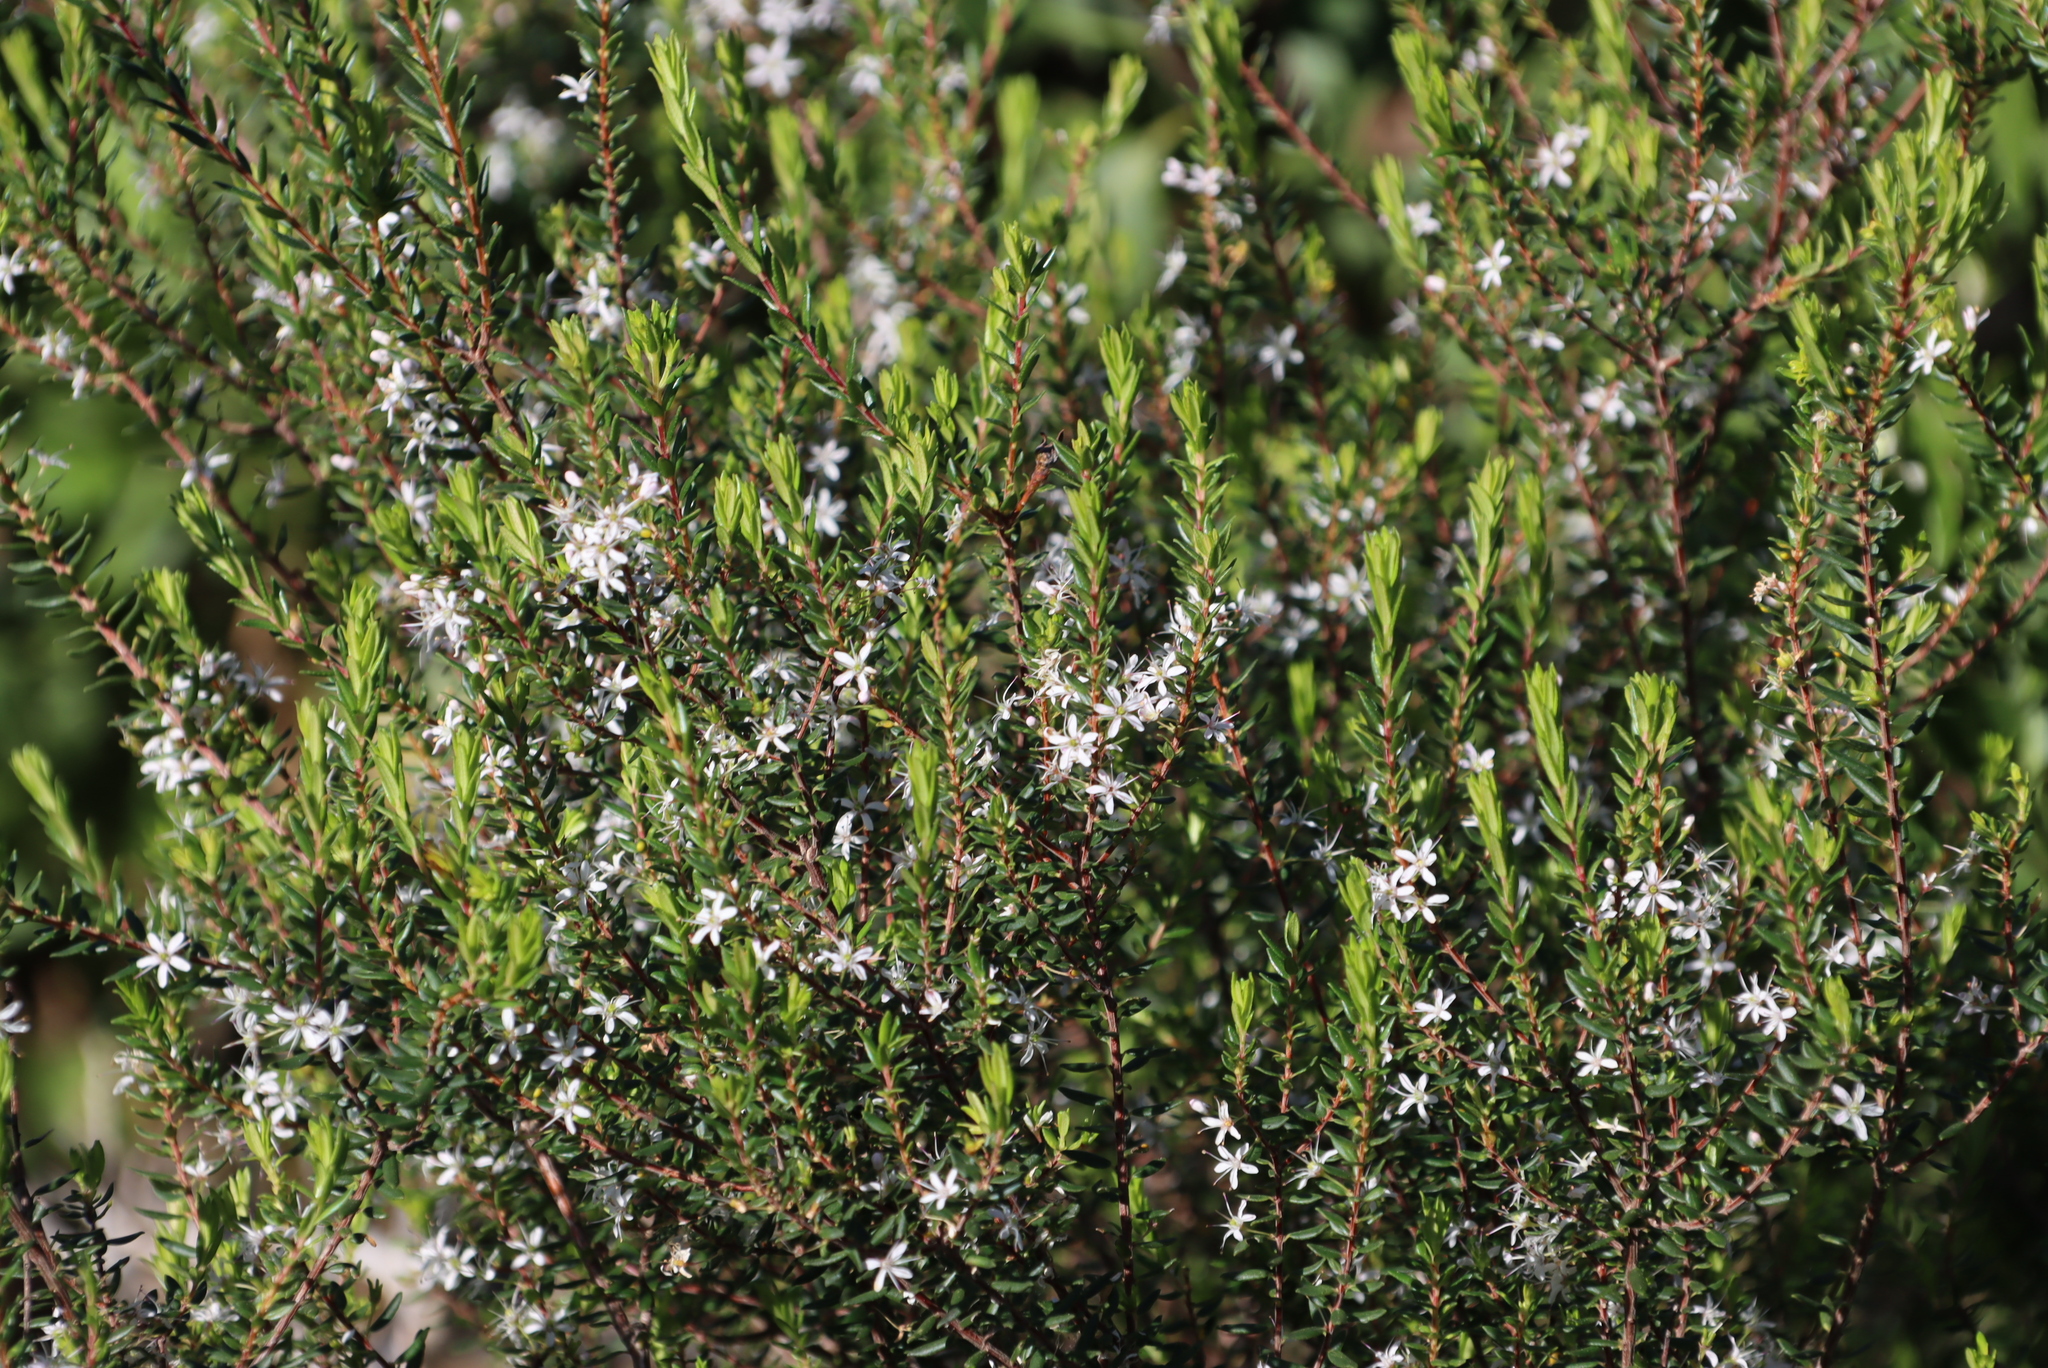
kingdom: Plantae
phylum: Tracheophyta
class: Magnoliopsida
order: Sapindales
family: Rutaceae
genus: Agathosma
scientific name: Agathosma ovata
